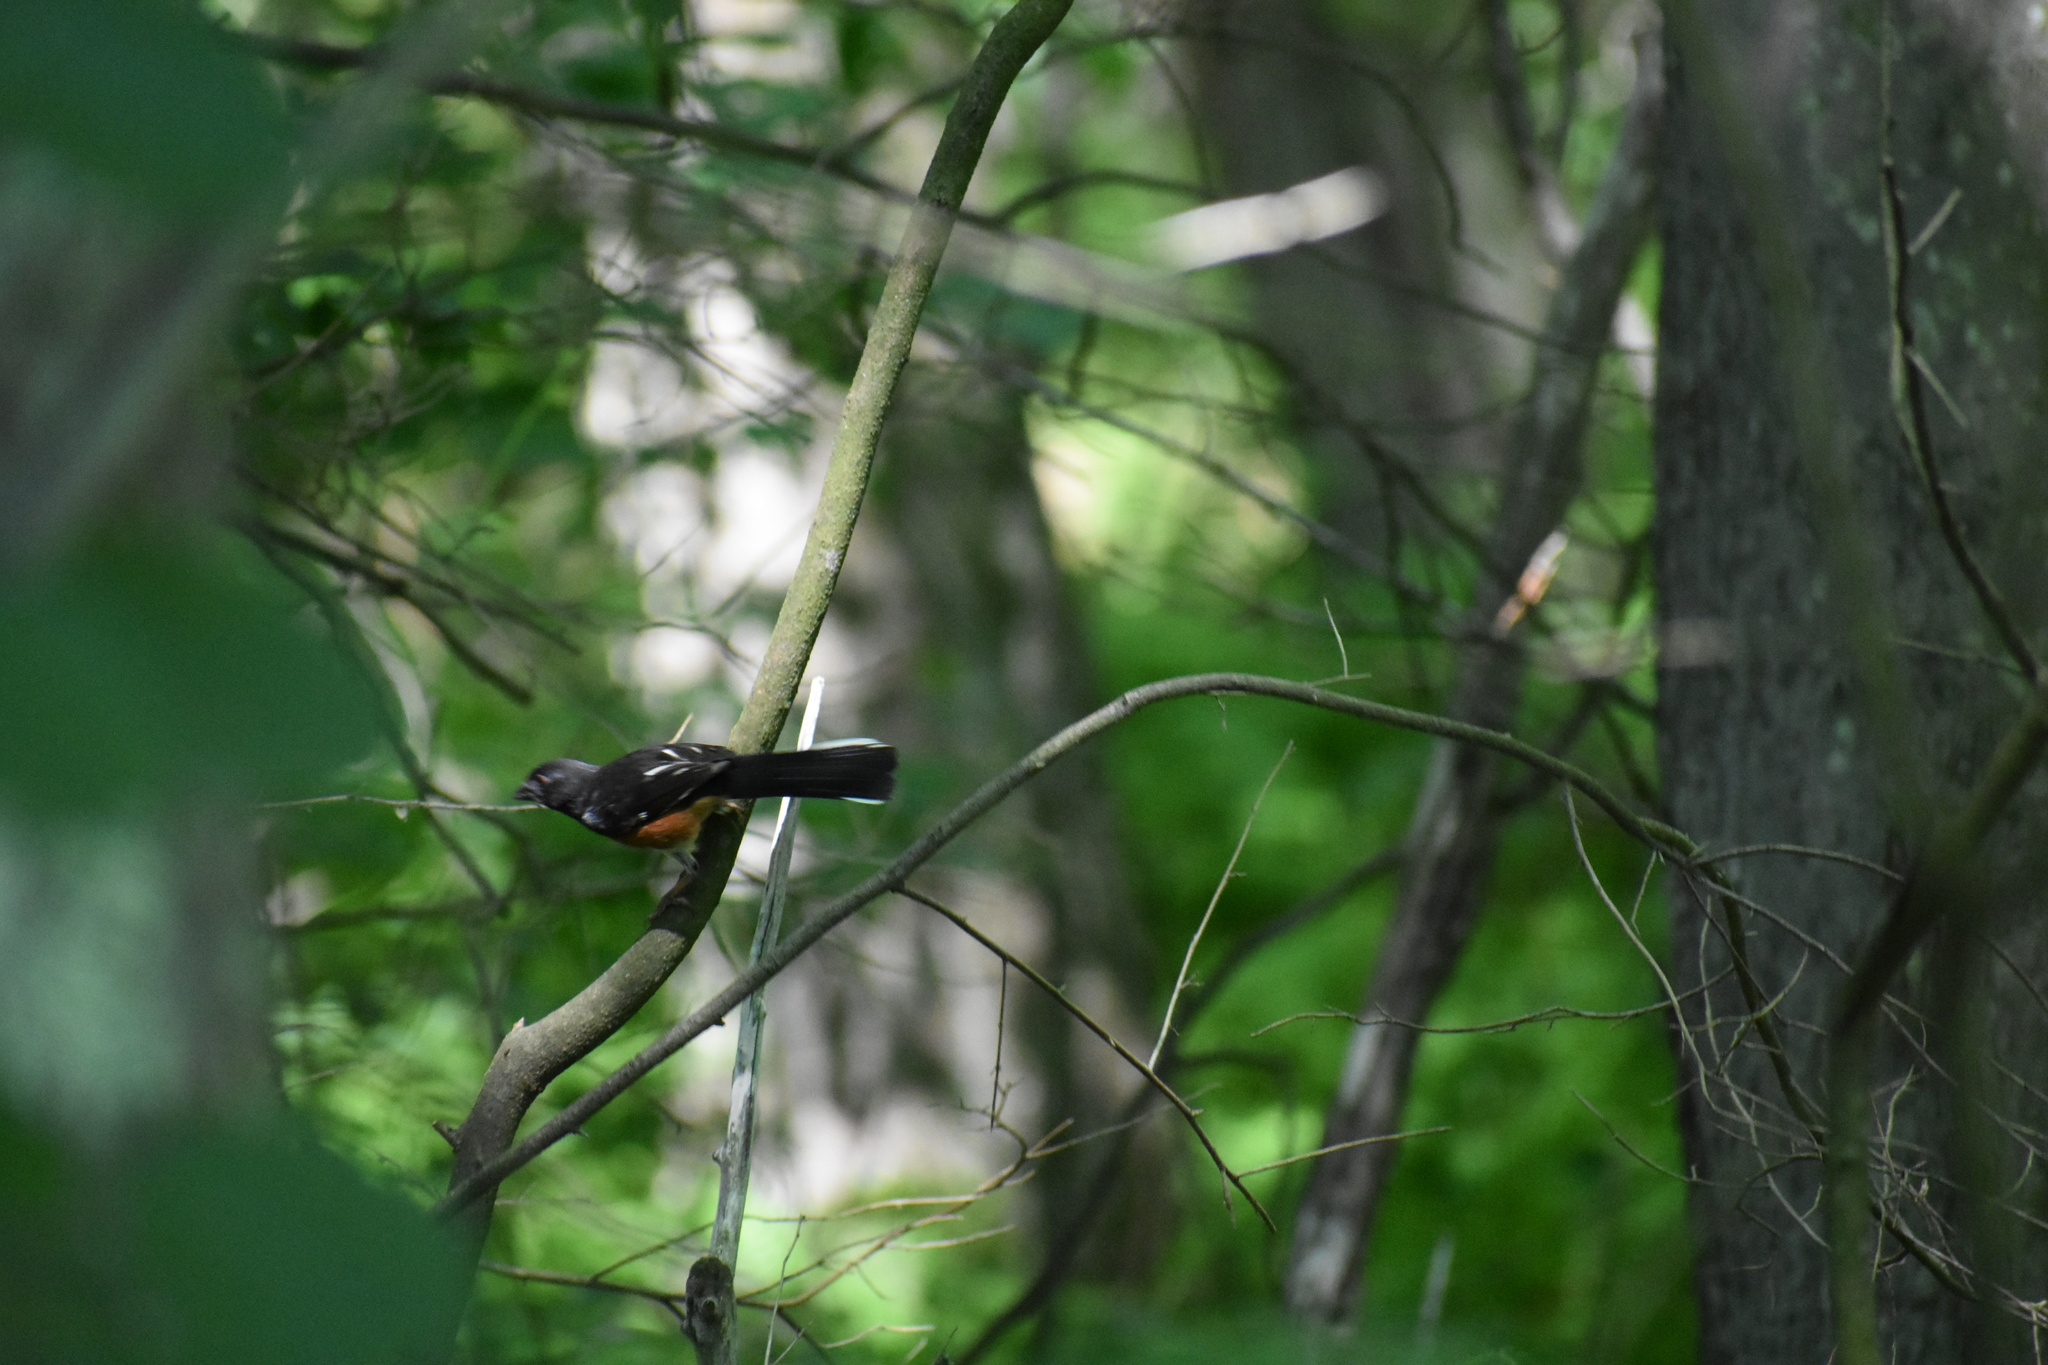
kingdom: Animalia
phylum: Chordata
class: Aves
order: Passeriformes
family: Passerellidae
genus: Pipilo
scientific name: Pipilo erythrophthalmus
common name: Eastern towhee
